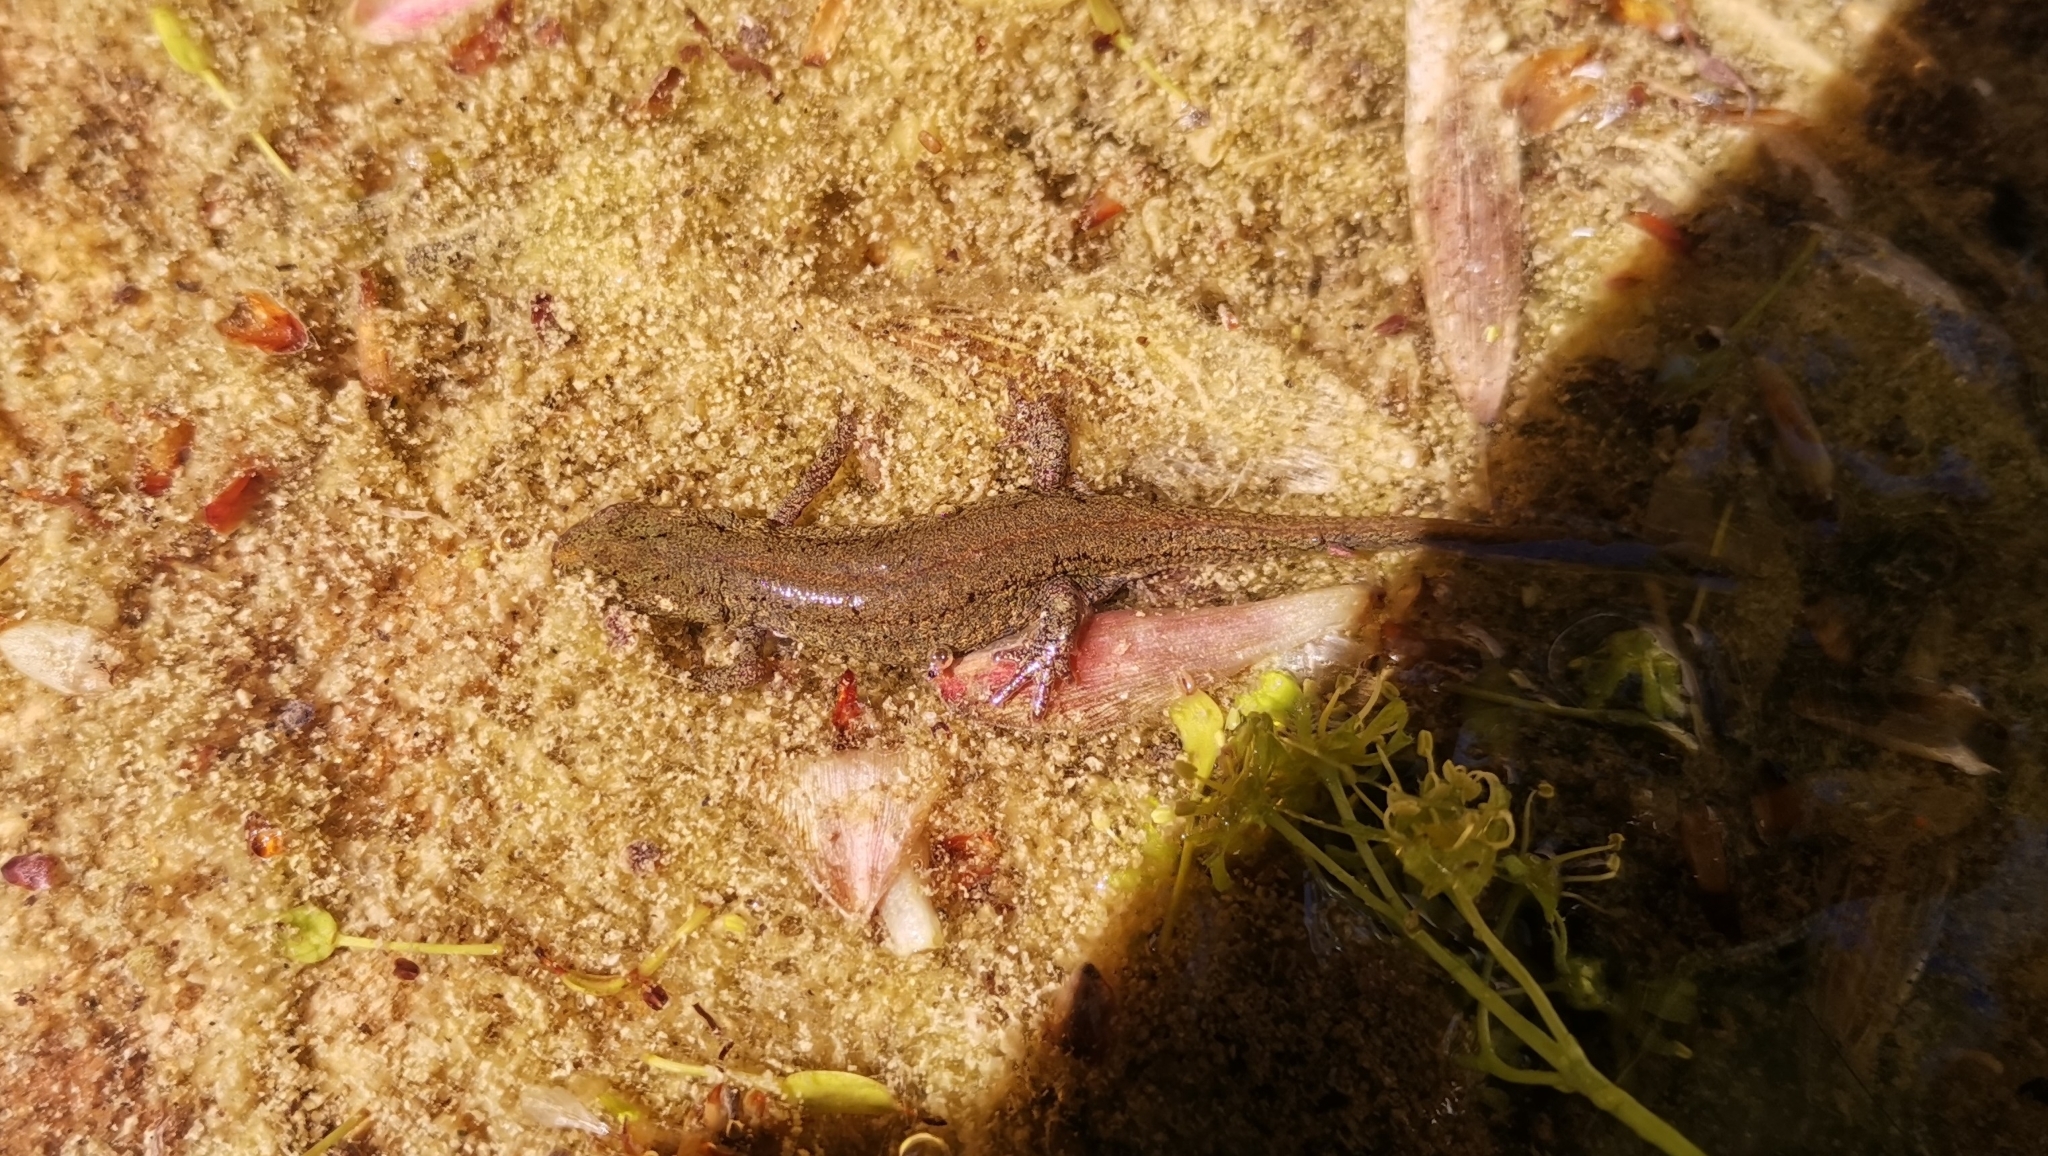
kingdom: Animalia
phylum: Chordata
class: Amphibia
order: Caudata
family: Salamandridae
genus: Lissotriton
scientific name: Lissotriton italicus
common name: Italian newt
